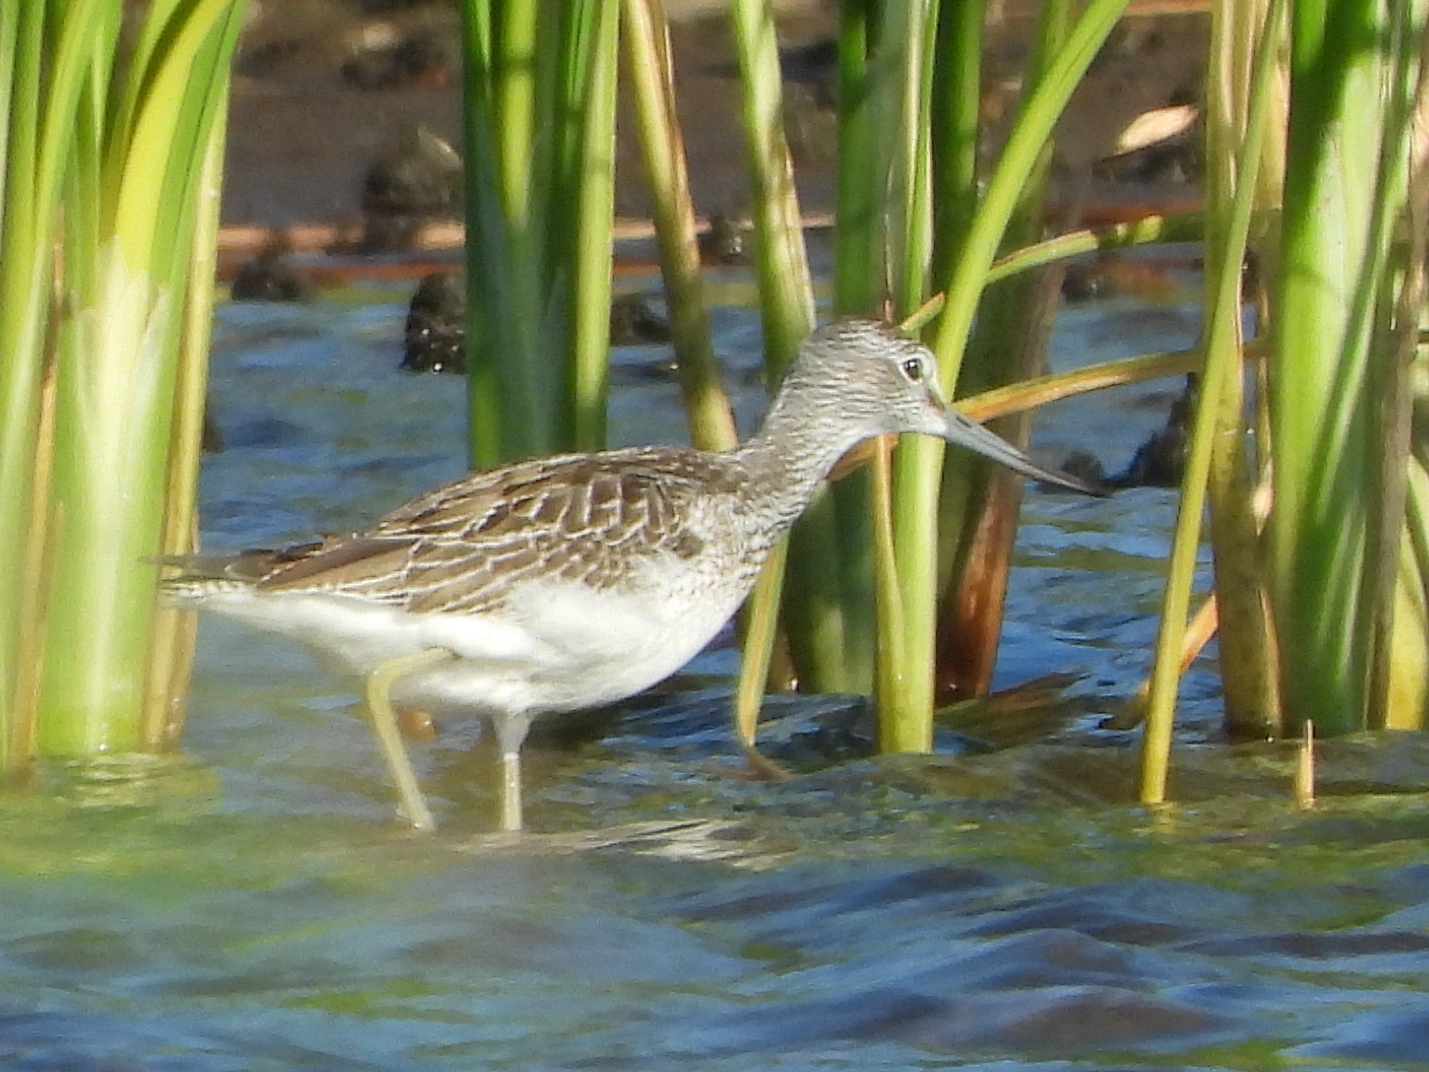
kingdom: Animalia
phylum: Chordata
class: Aves
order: Charadriiformes
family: Scolopacidae
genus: Tringa
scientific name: Tringa nebularia
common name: Common greenshank
